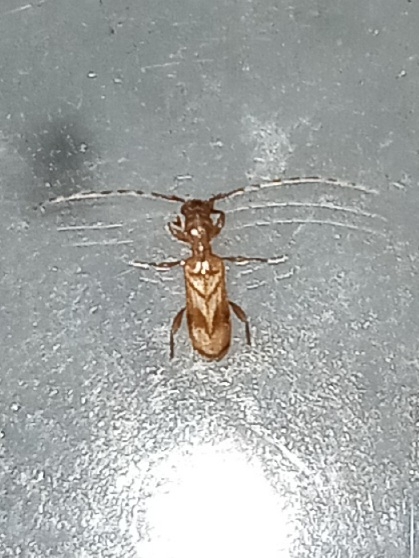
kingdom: Animalia
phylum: Arthropoda
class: Insecta
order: Coleoptera
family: Cerambycidae
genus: Obrium
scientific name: Obrium maculatum
